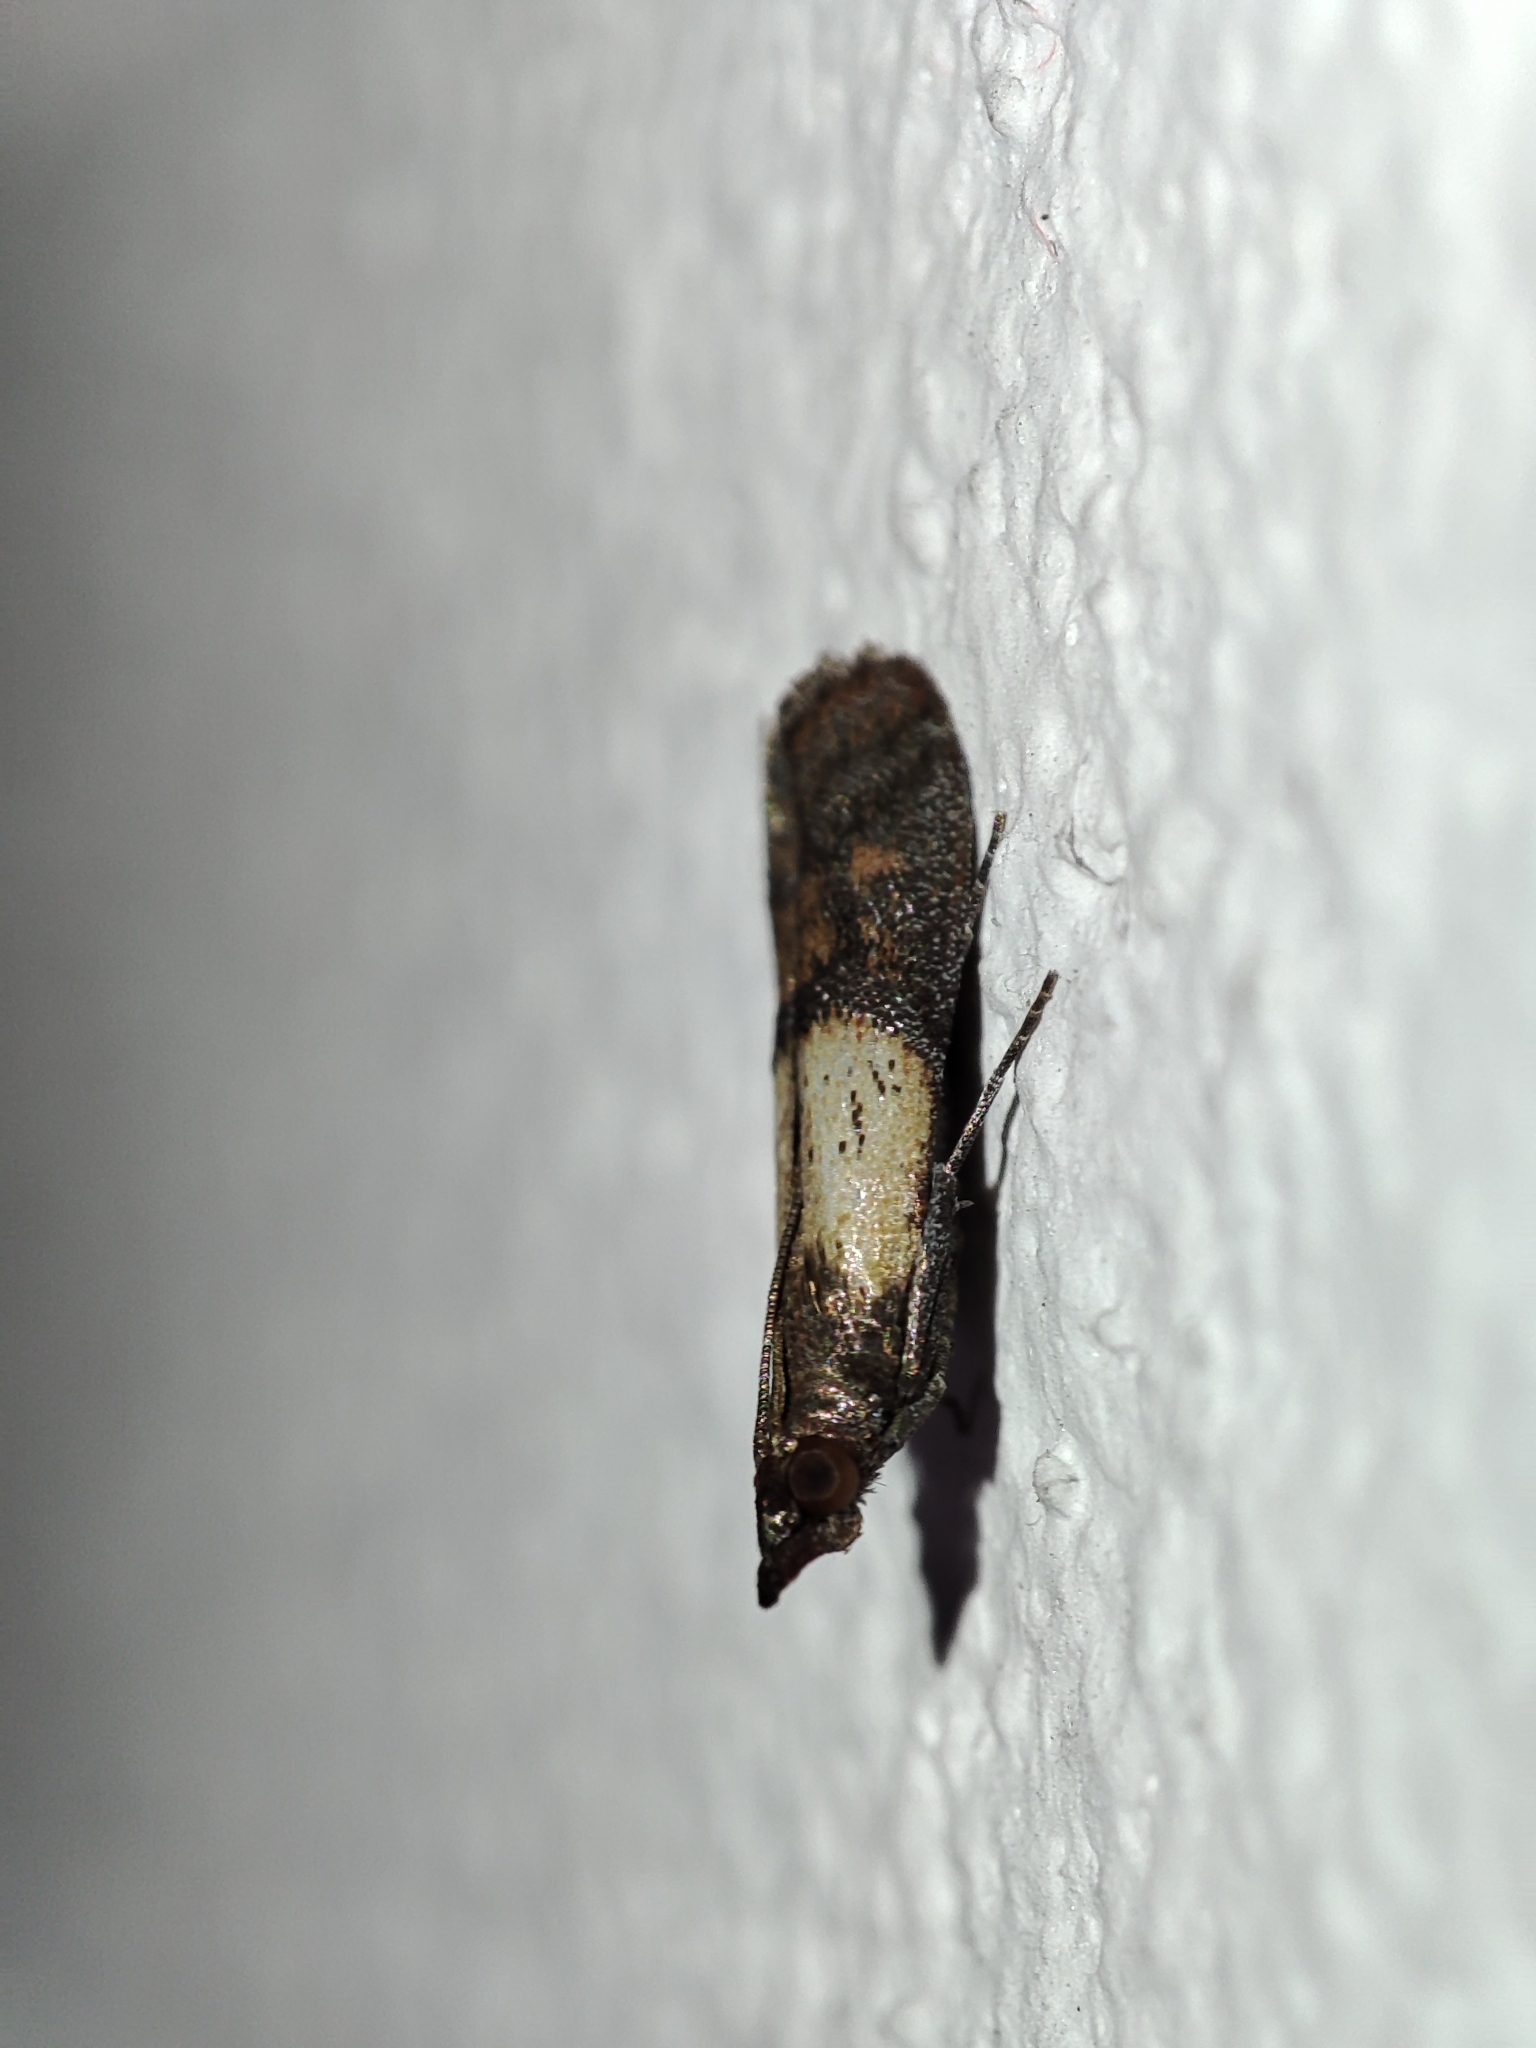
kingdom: Animalia
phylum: Arthropoda
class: Insecta
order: Lepidoptera
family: Pyralidae
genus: Plodia
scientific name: Plodia interpunctella
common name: Indian meal moth
